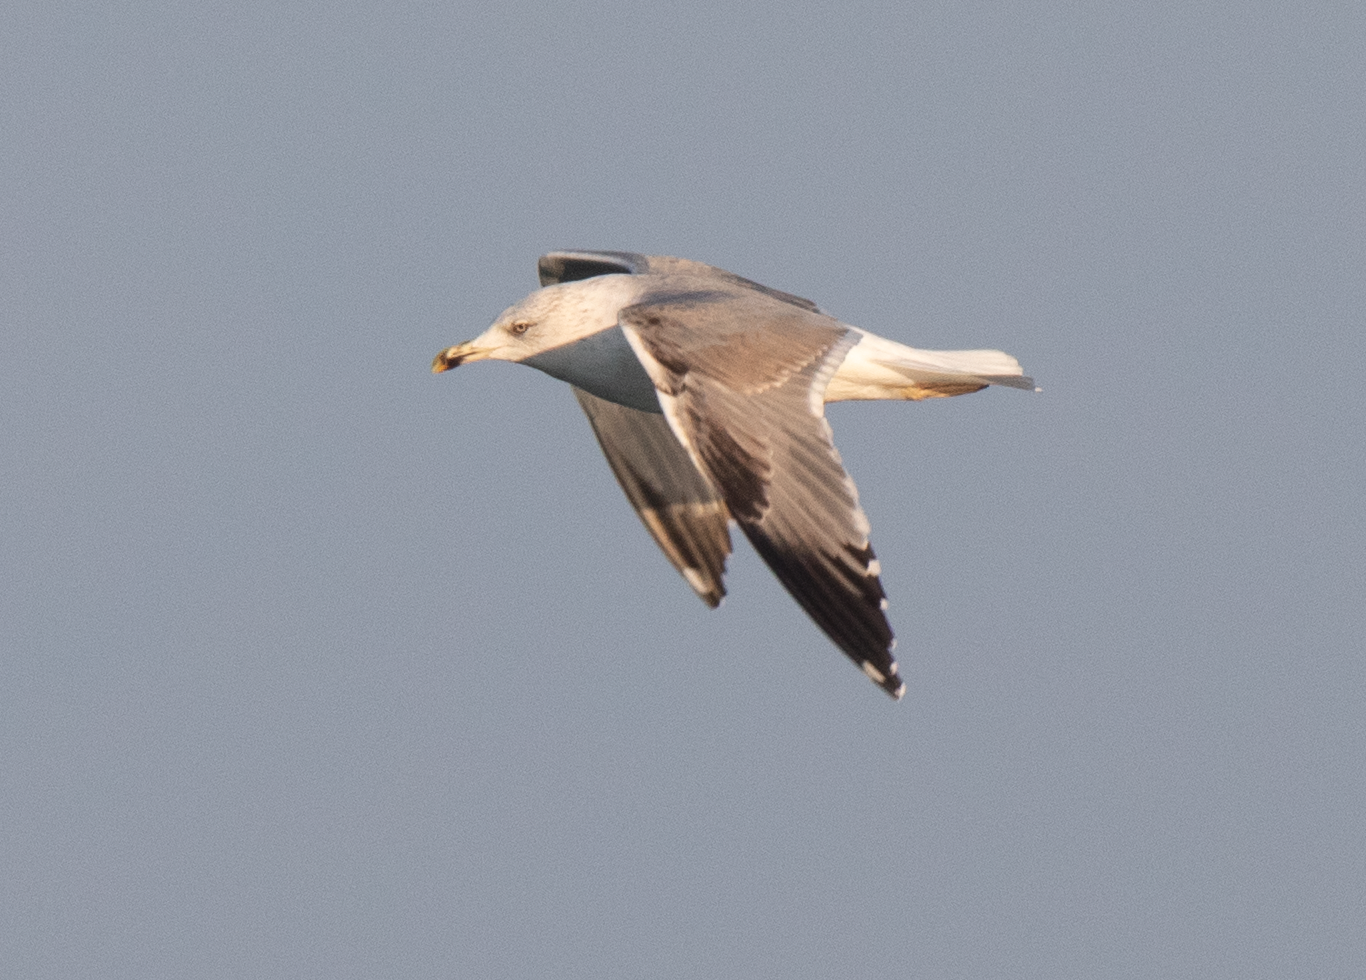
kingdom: Animalia
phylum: Chordata
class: Aves
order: Charadriiformes
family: Laridae
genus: Larus
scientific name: Larus michahellis
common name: Yellow-legged gull
